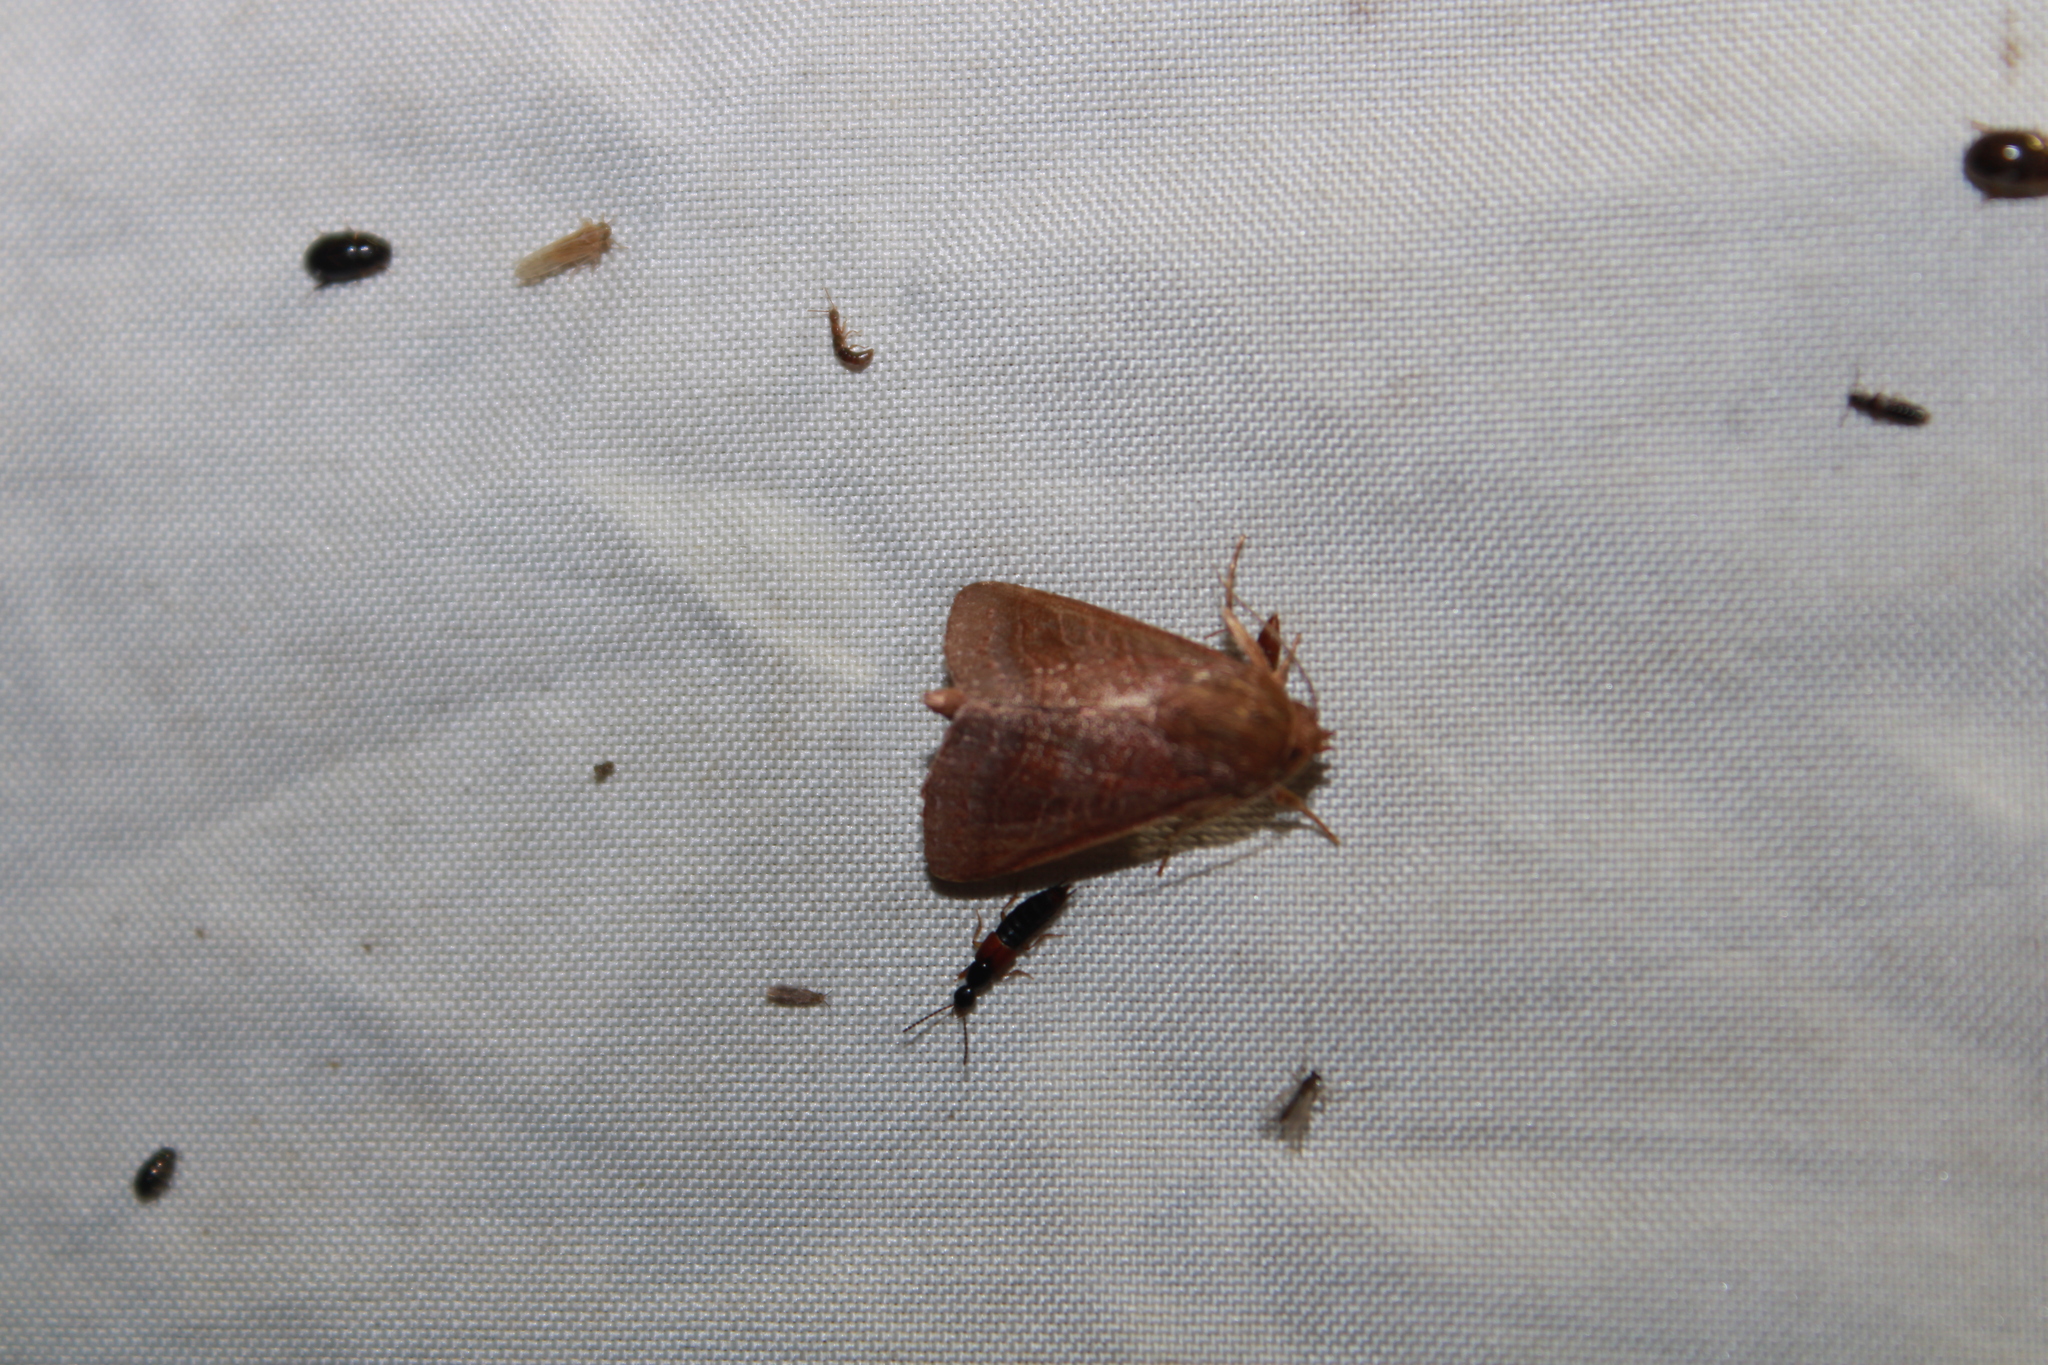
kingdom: Animalia
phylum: Arthropoda
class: Insecta
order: Lepidoptera
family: Noctuidae
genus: Phuphena
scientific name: Phuphena tura
